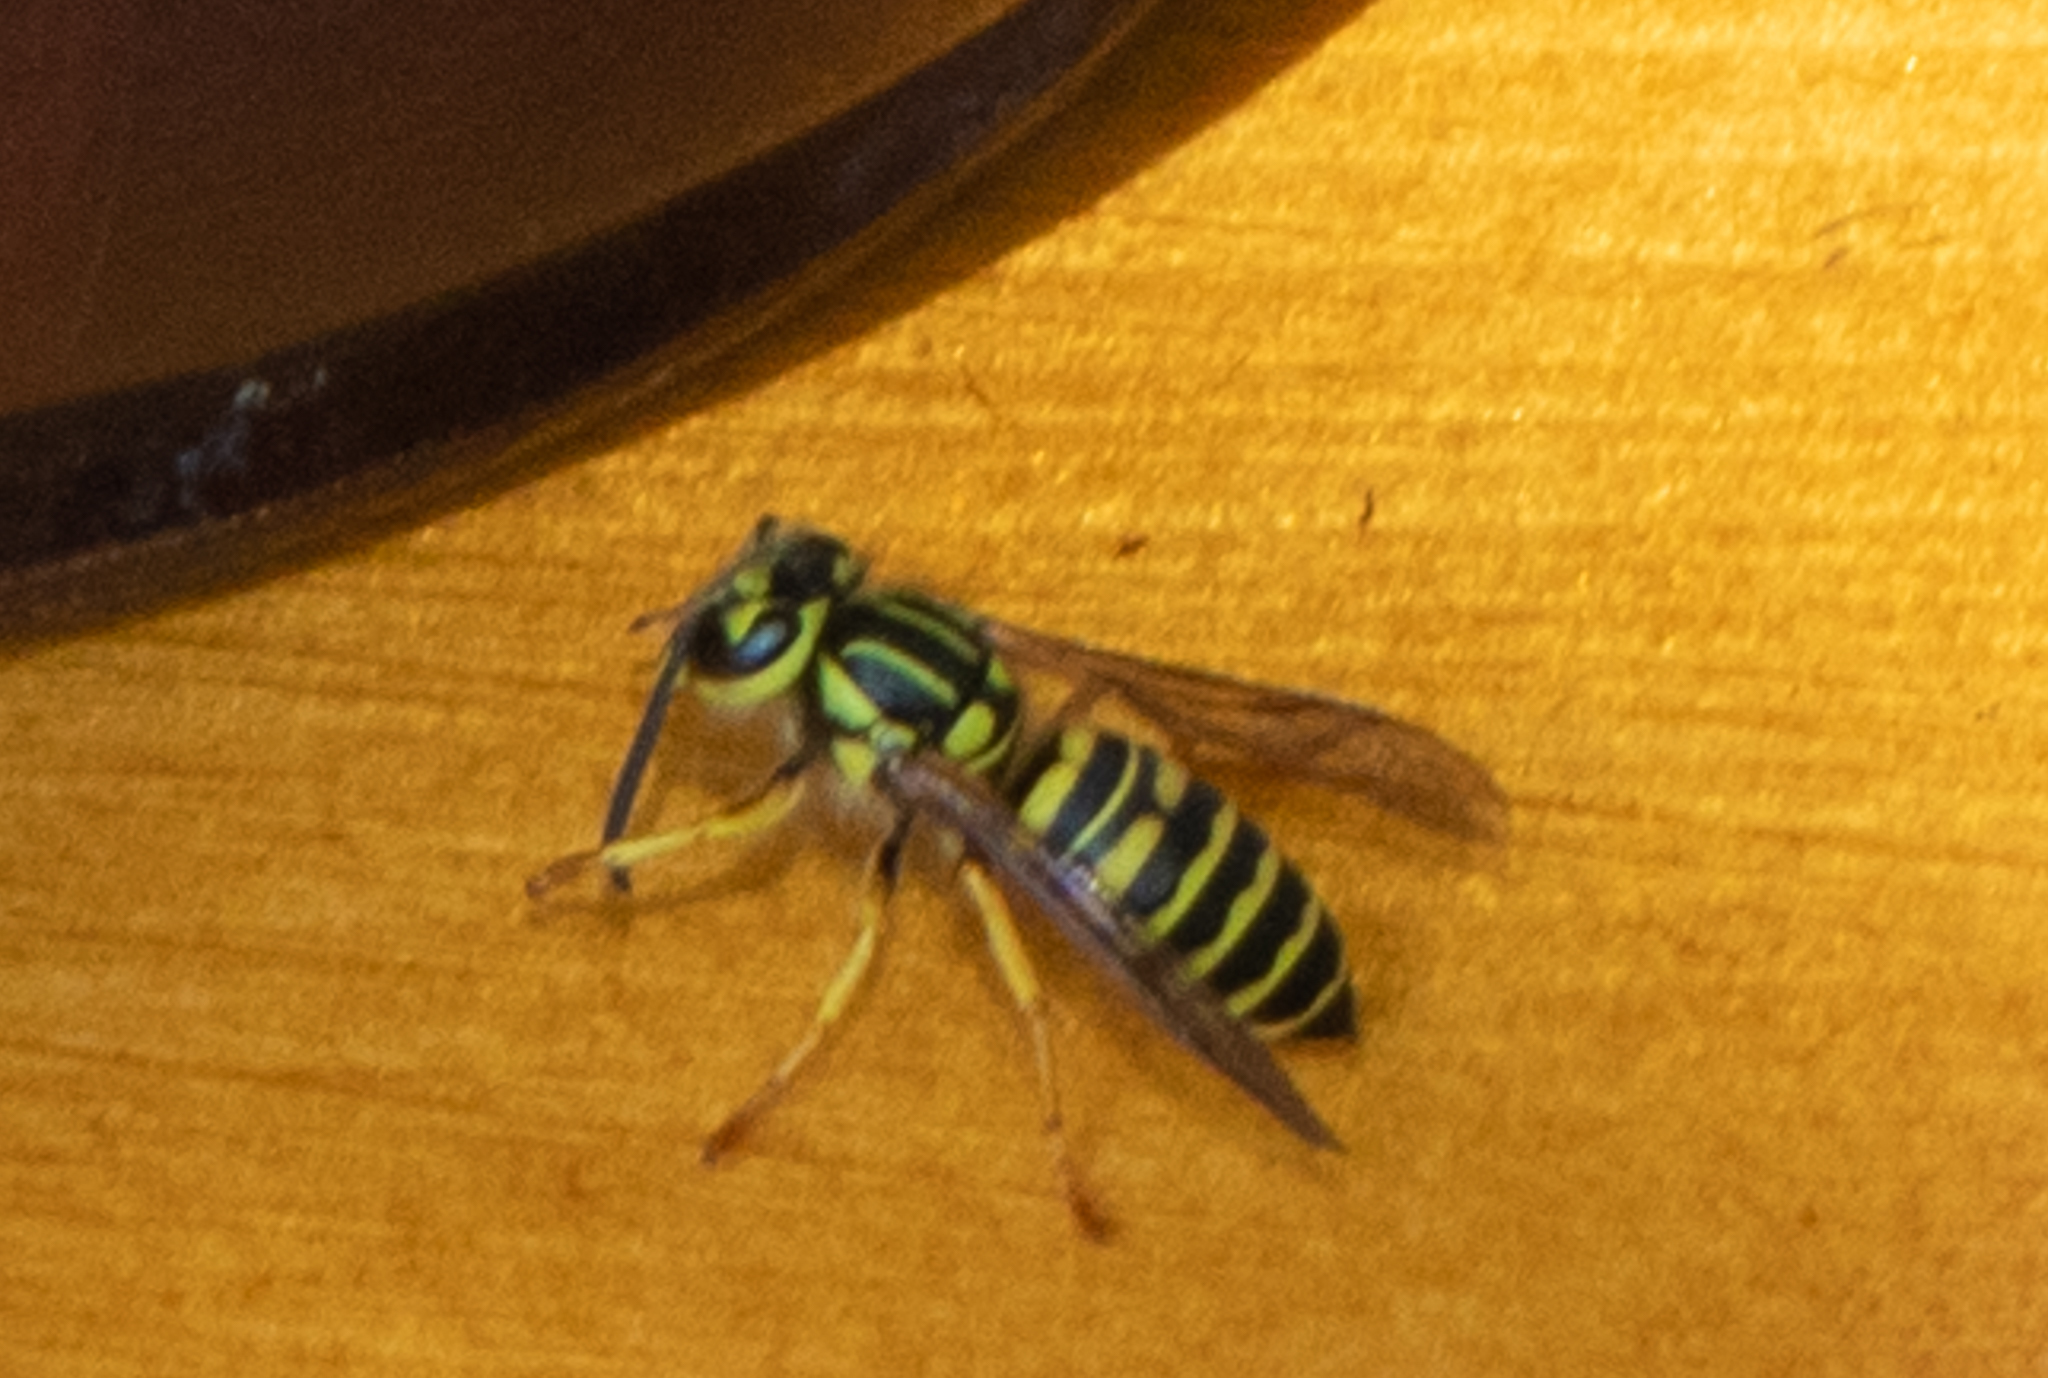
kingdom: Animalia
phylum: Arthropoda
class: Insecta
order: Hymenoptera
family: Vespidae
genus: Vespula
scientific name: Vespula squamosa
